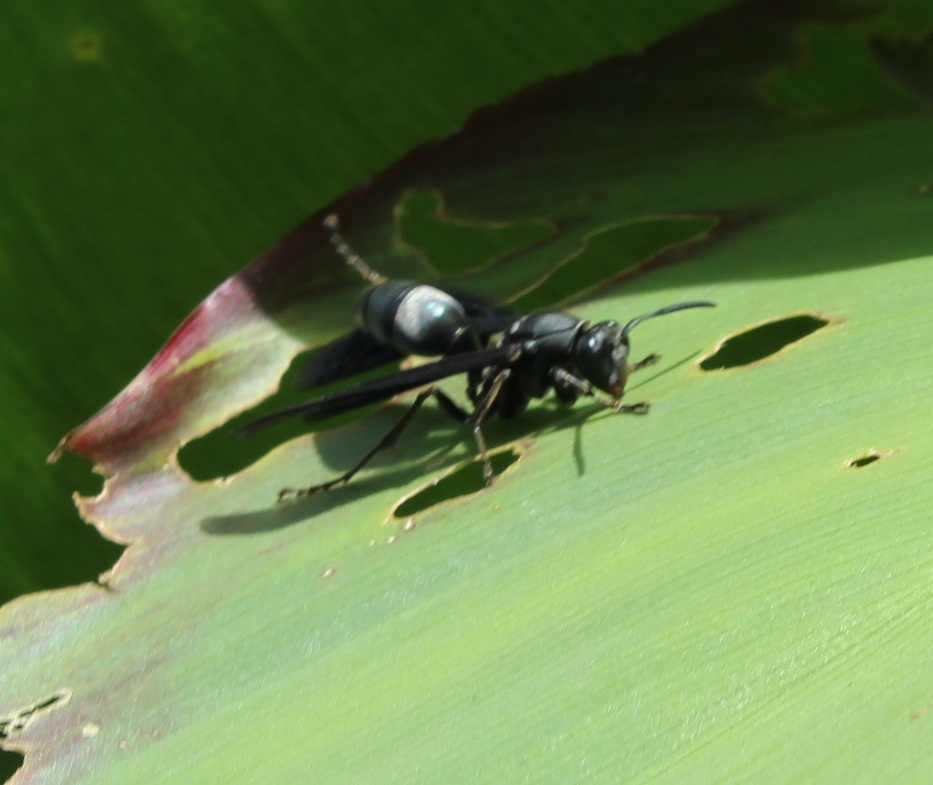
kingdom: Animalia
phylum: Arthropoda
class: Insecta
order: Hymenoptera
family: Eumenidae
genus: Polistes
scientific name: Polistes aterrimus
